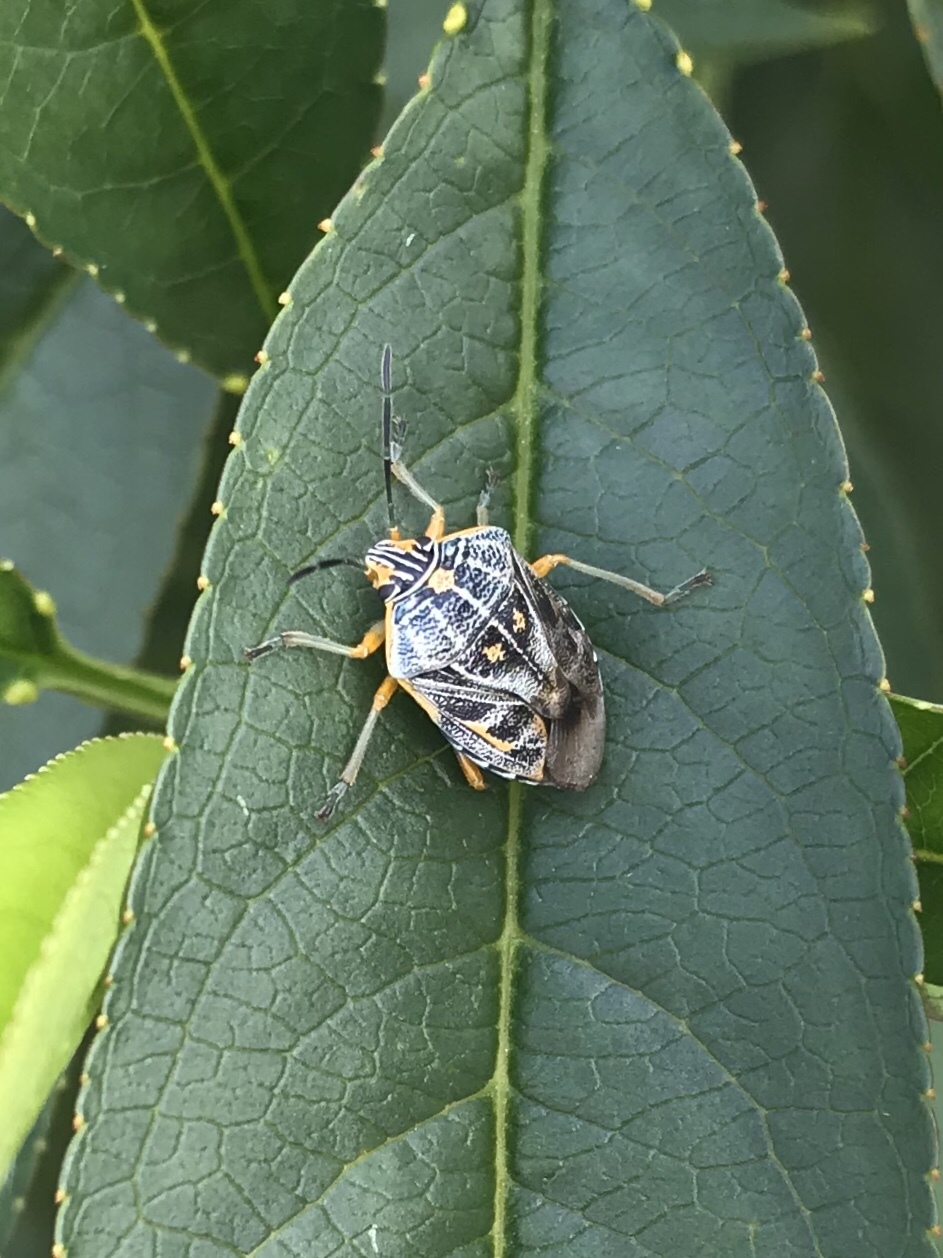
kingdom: Animalia
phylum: Arthropoda
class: Insecta
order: Hemiptera
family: Pentatomidae
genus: Antestiopsis
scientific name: Antestiopsis thunbergii
